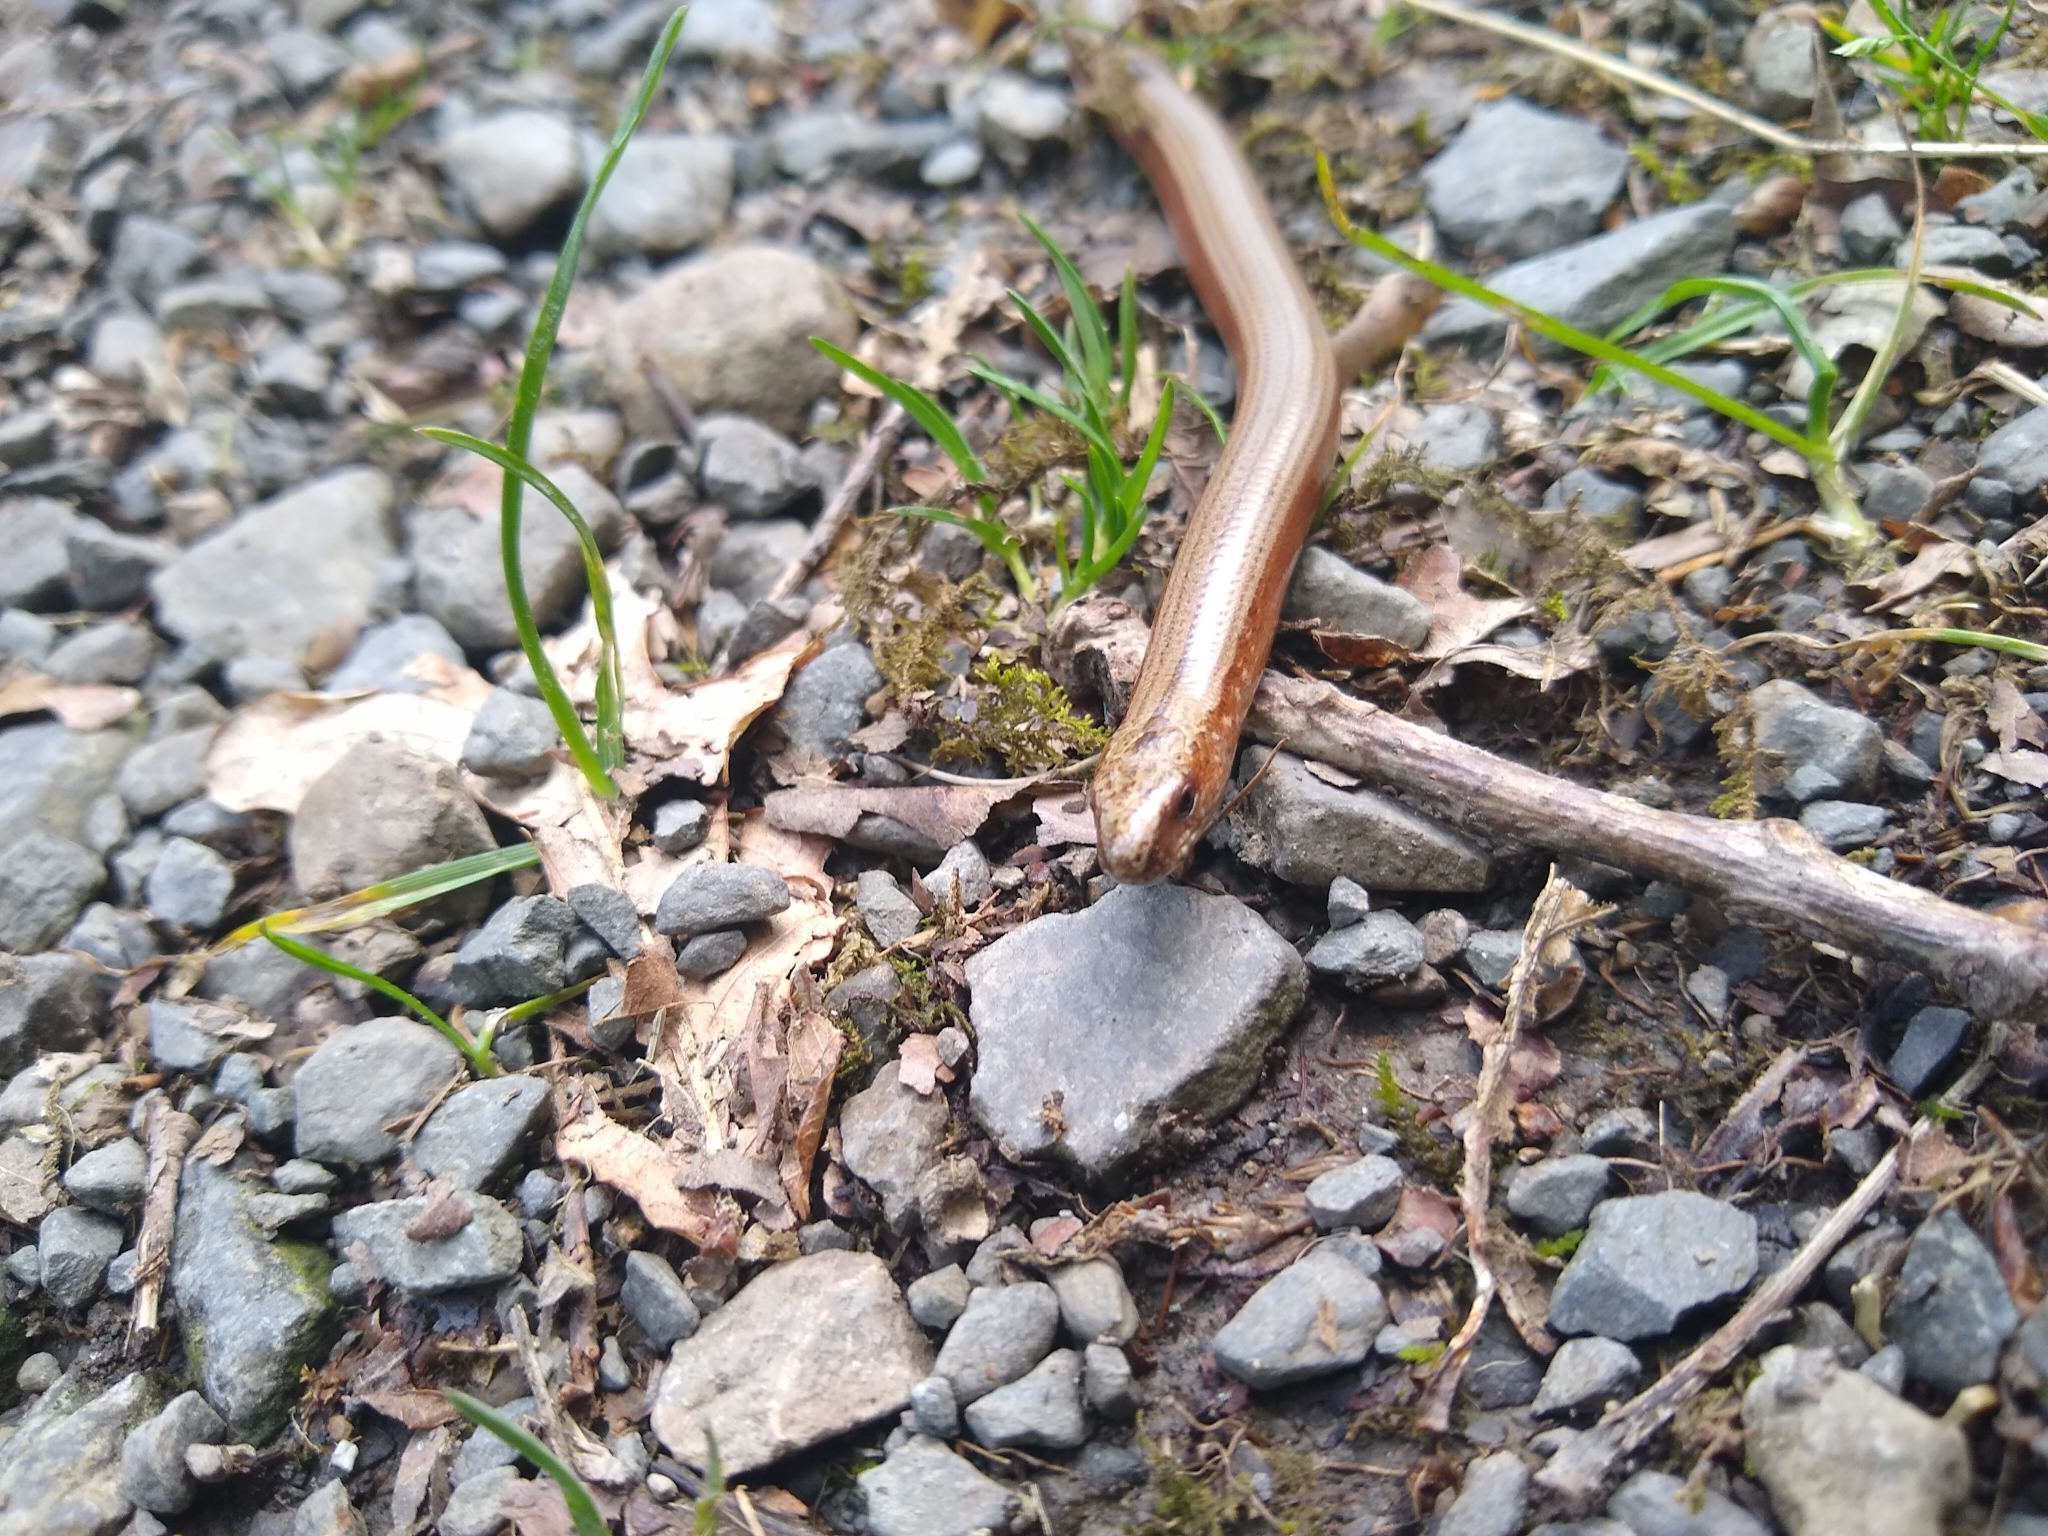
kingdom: Animalia
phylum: Chordata
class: Squamata
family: Anguidae
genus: Anguis
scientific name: Anguis fragilis
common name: Slow worm
